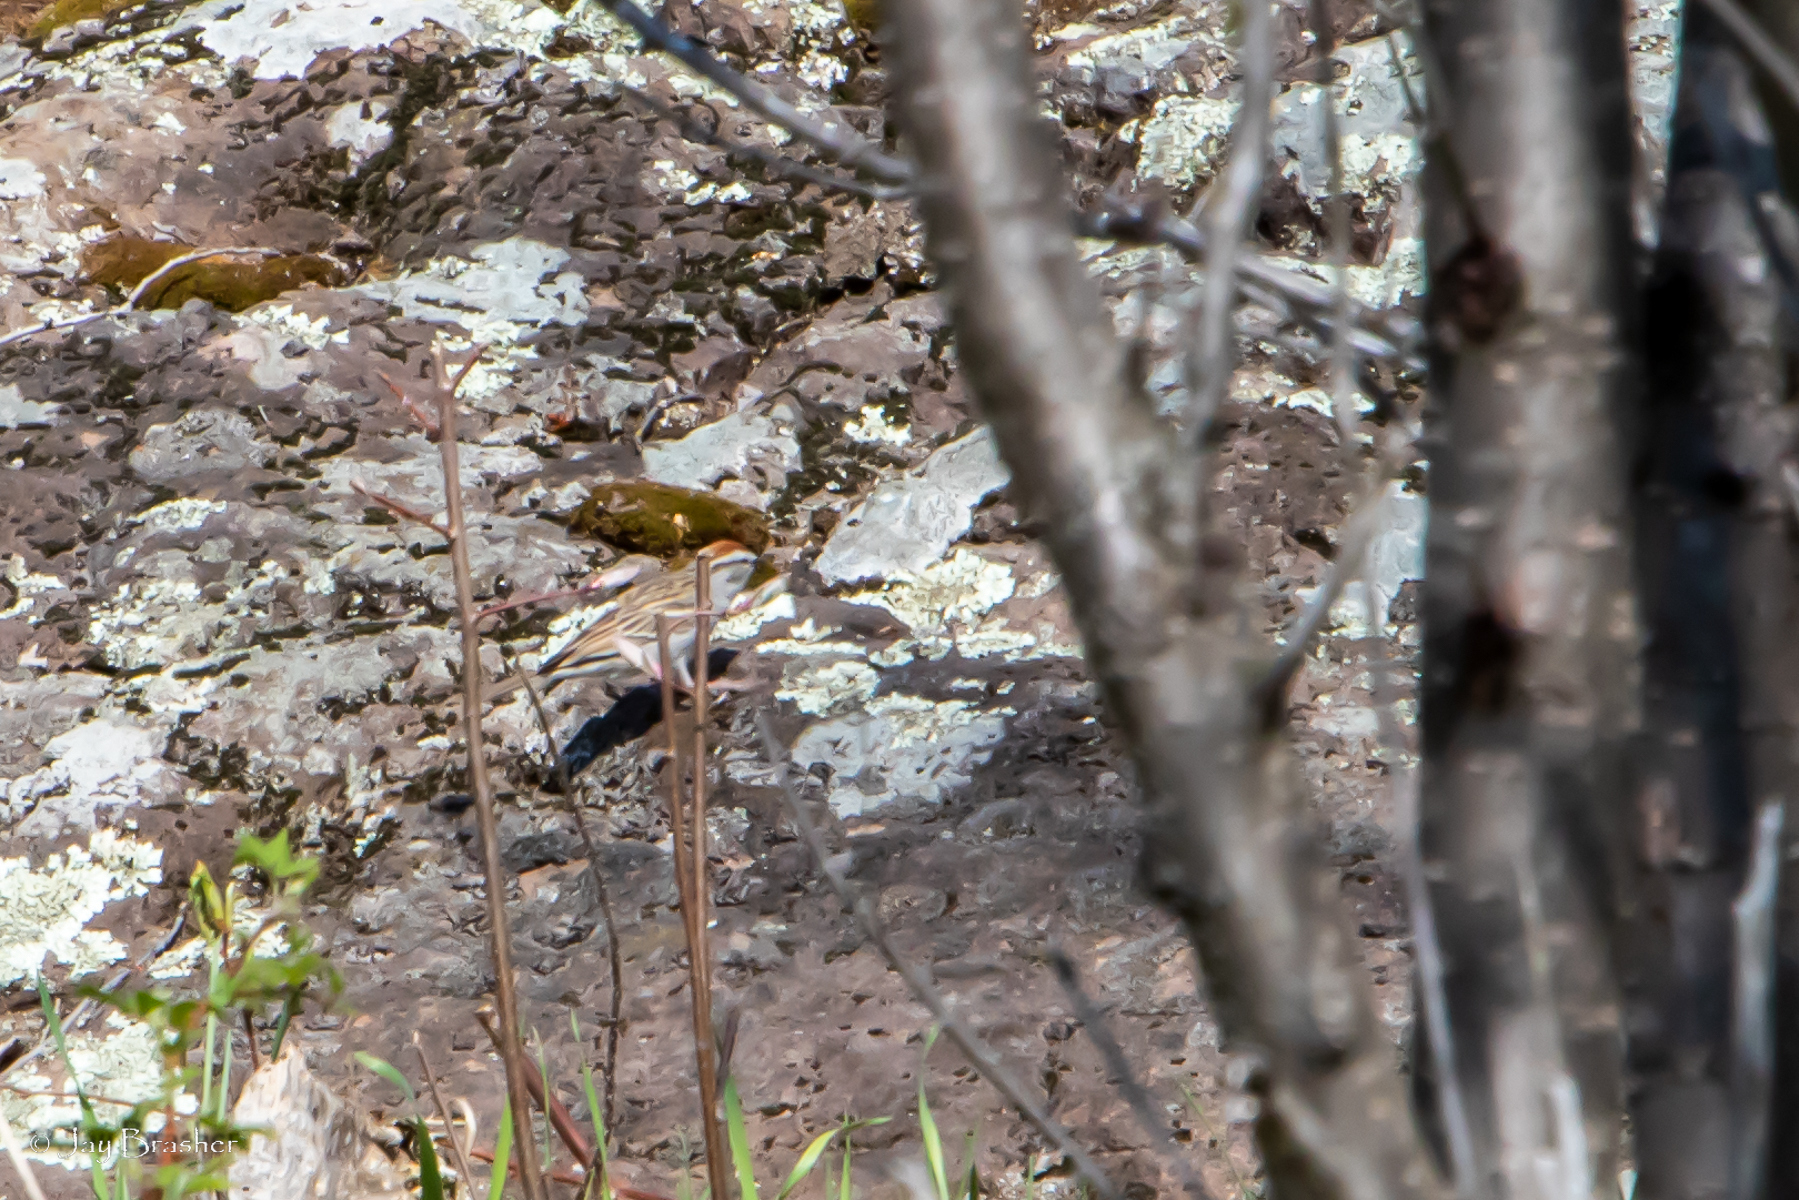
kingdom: Animalia
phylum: Chordata
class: Aves
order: Passeriformes
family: Passerellidae
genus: Spizella
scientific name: Spizella passerina
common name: Chipping sparrow
